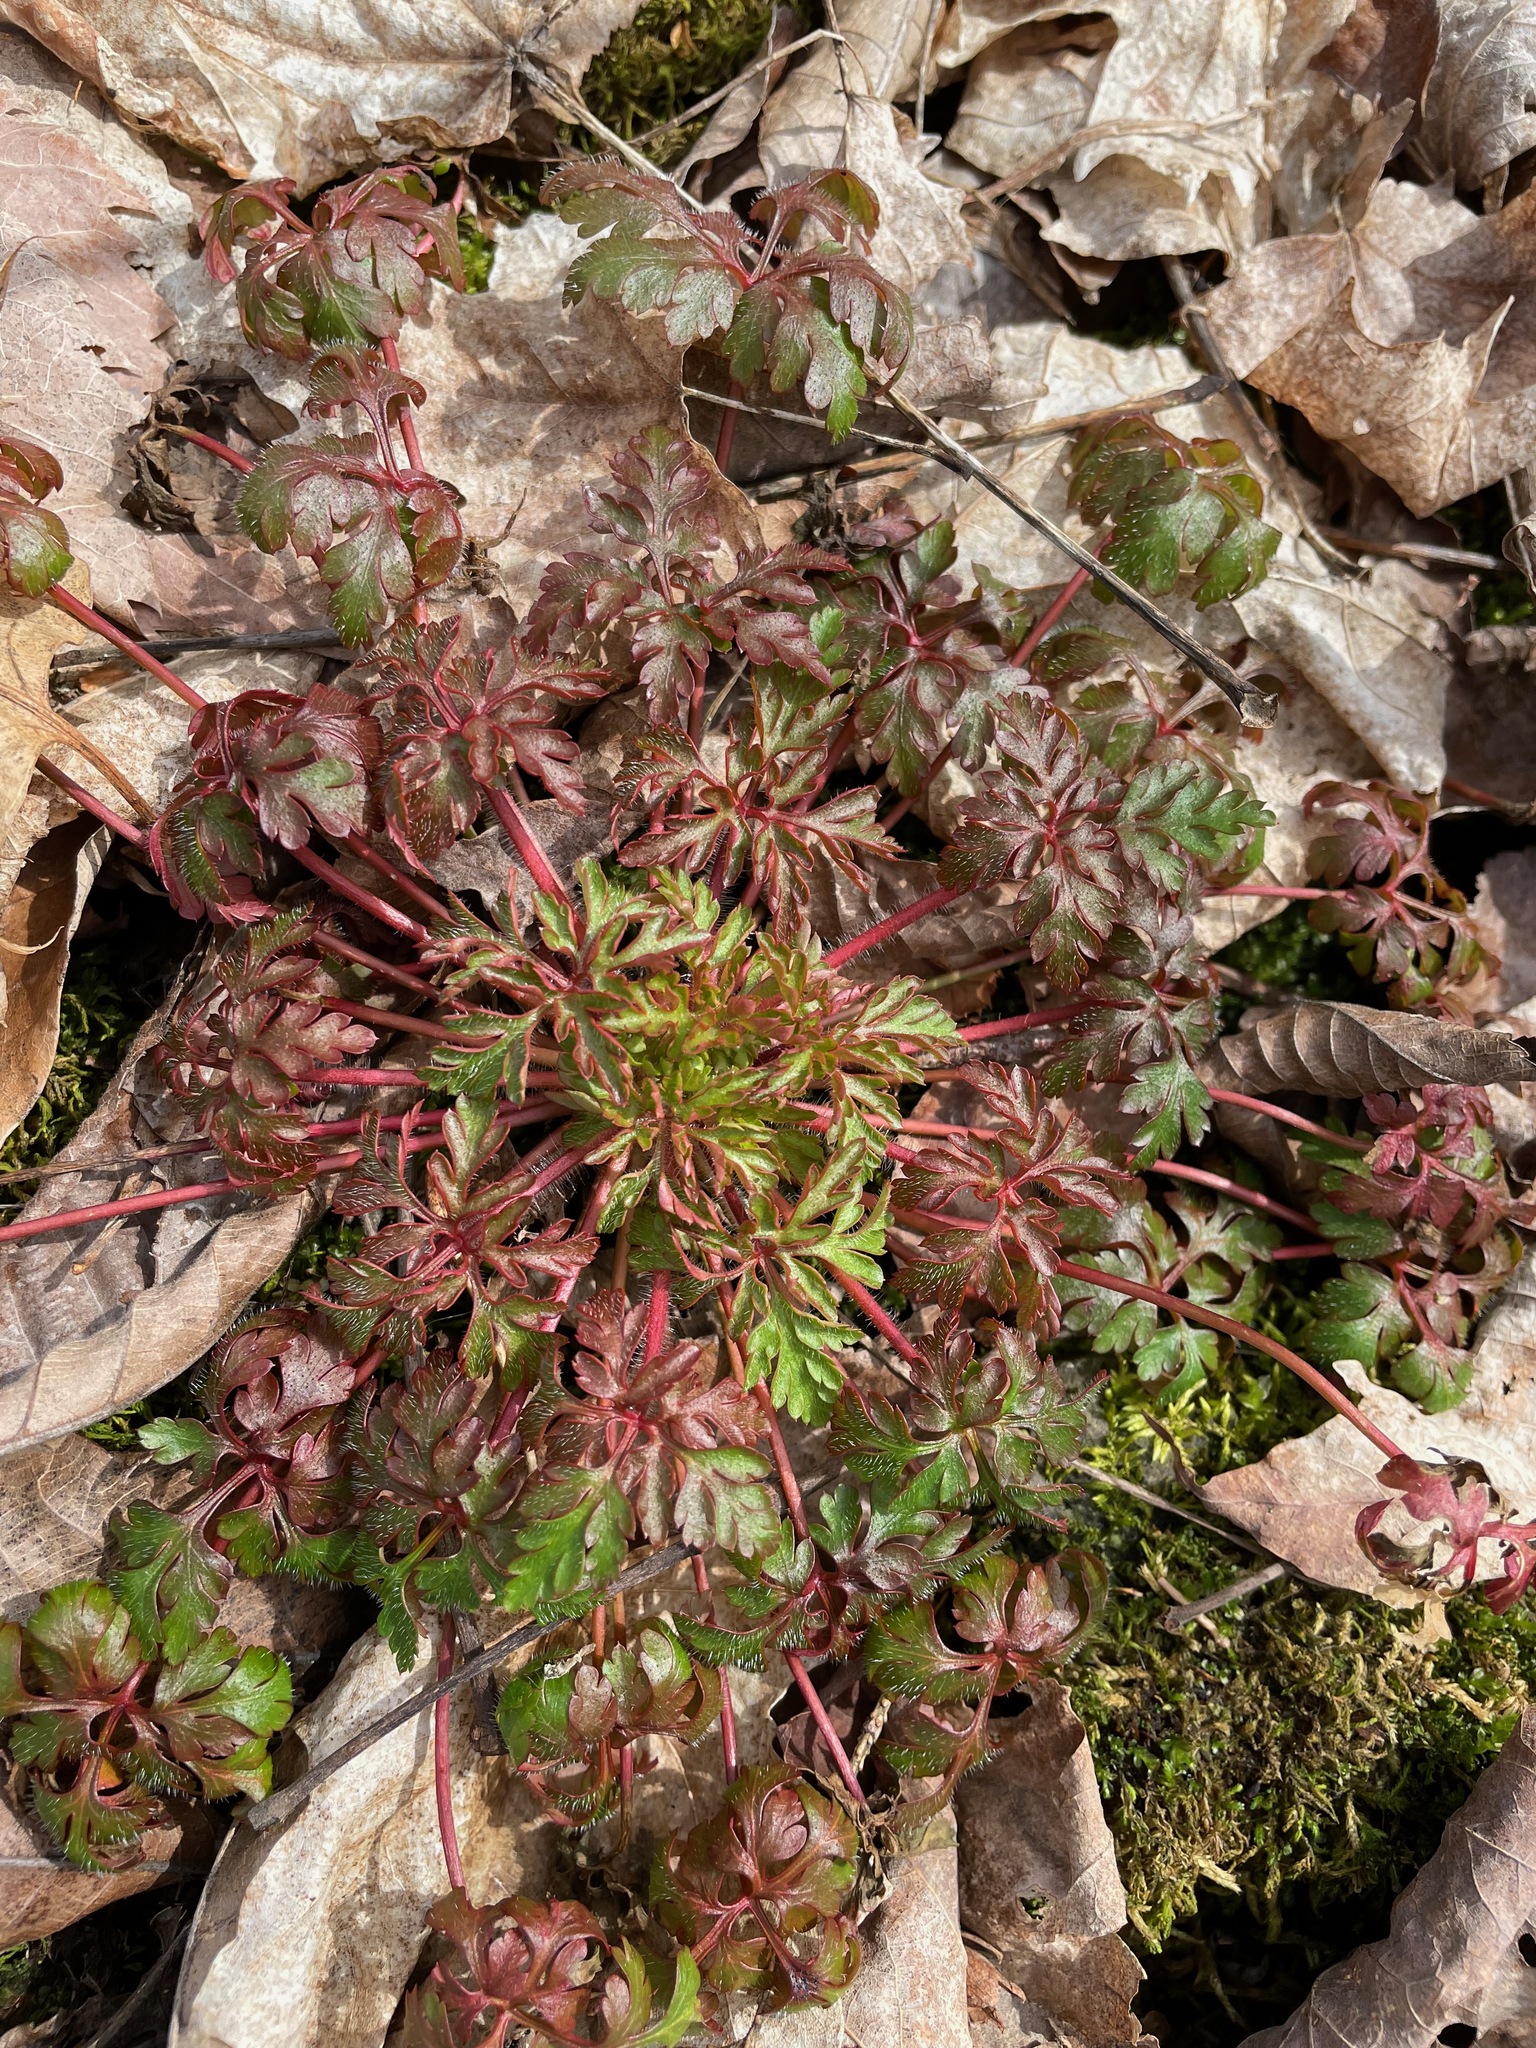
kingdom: Plantae
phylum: Tracheophyta
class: Magnoliopsida
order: Geraniales
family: Geraniaceae
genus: Geranium
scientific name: Geranium robertianum
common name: Herb-robert
